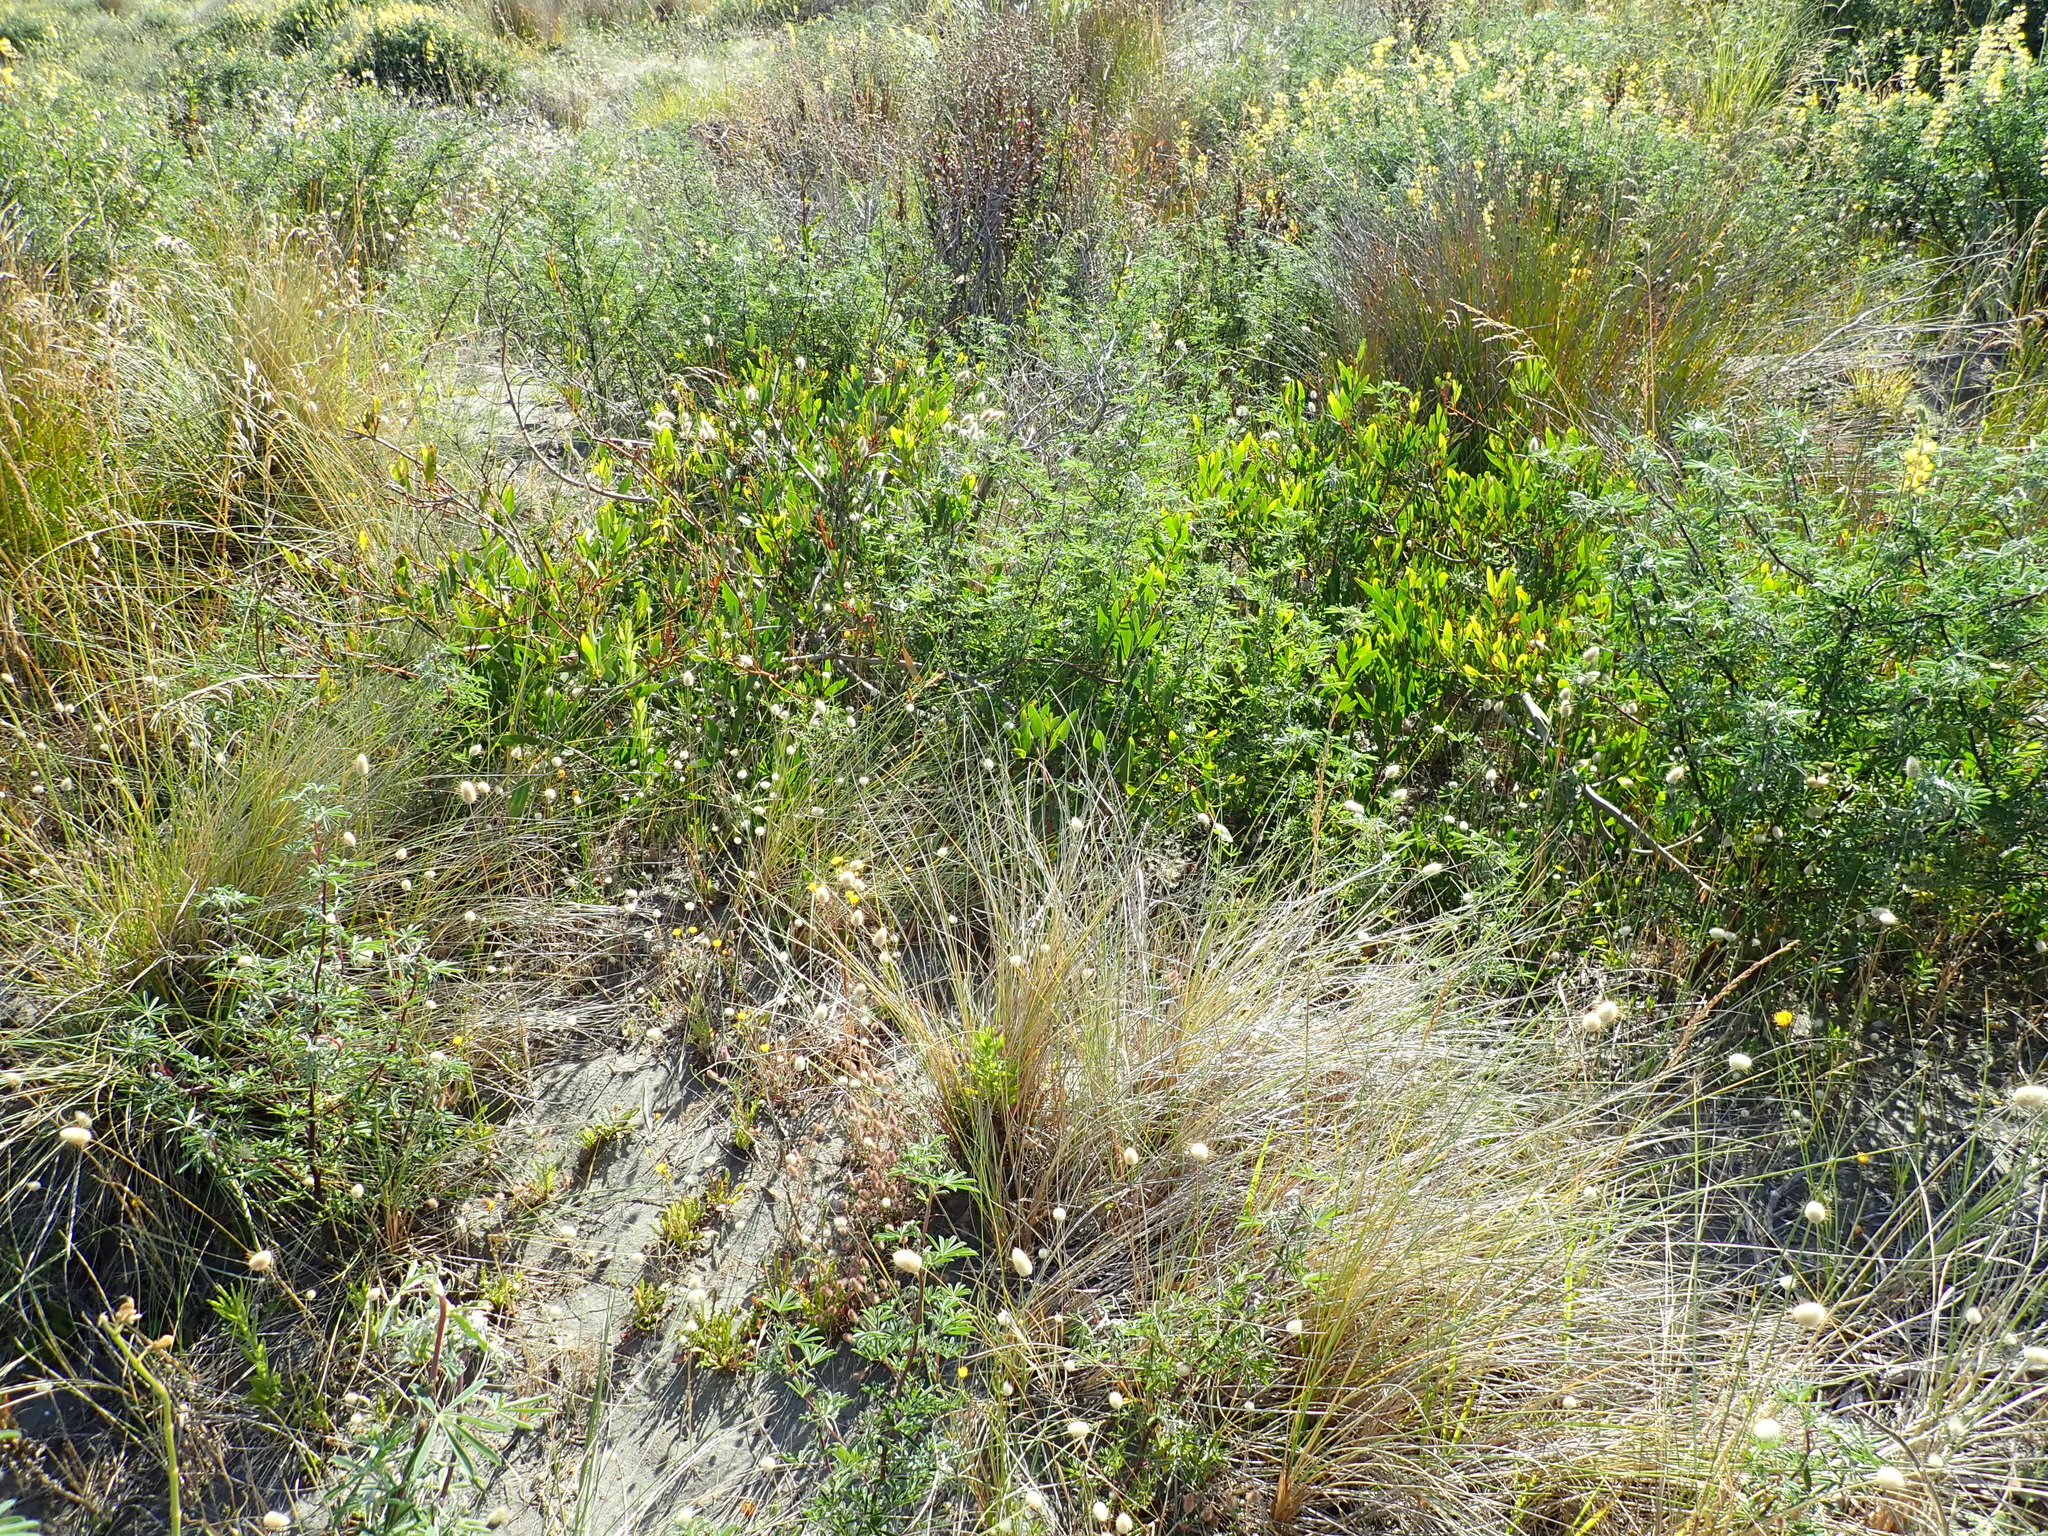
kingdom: Plantae
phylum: Tracheophyta
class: Magnoliopsida
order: Fabales
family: Fabaceae
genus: Acacia
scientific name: Acacia longifolia
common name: Sydney golden wattle
